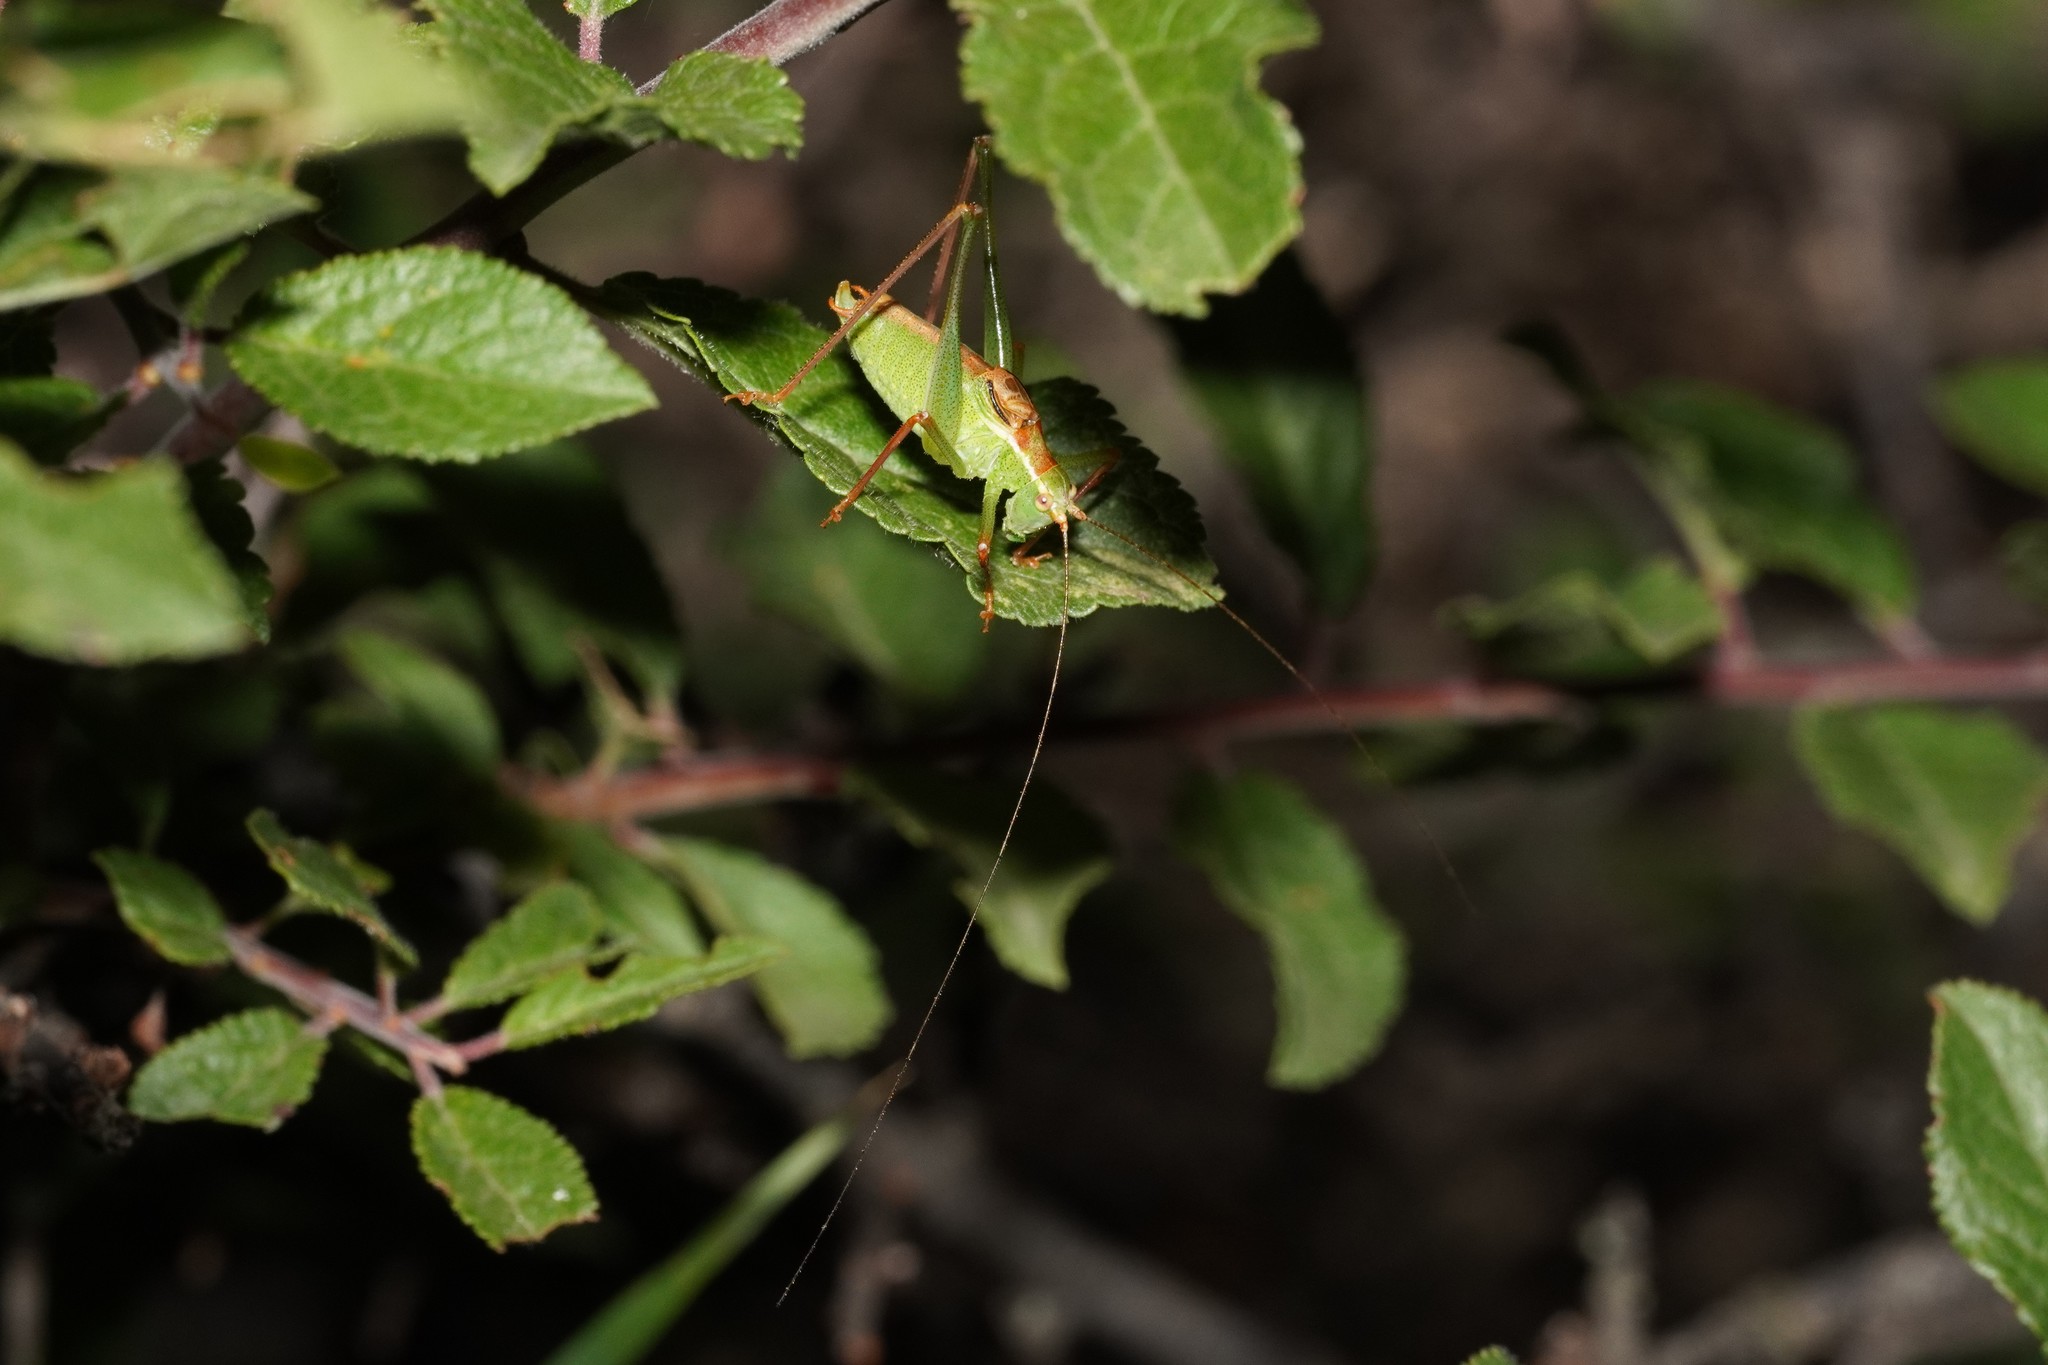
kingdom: Animalia
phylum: Arthropoda
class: Insecta
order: Orthoptera
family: Tettigoniidae
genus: Leptophyes
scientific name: Leptophyes punctatissima
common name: Speckled bush-cricket
